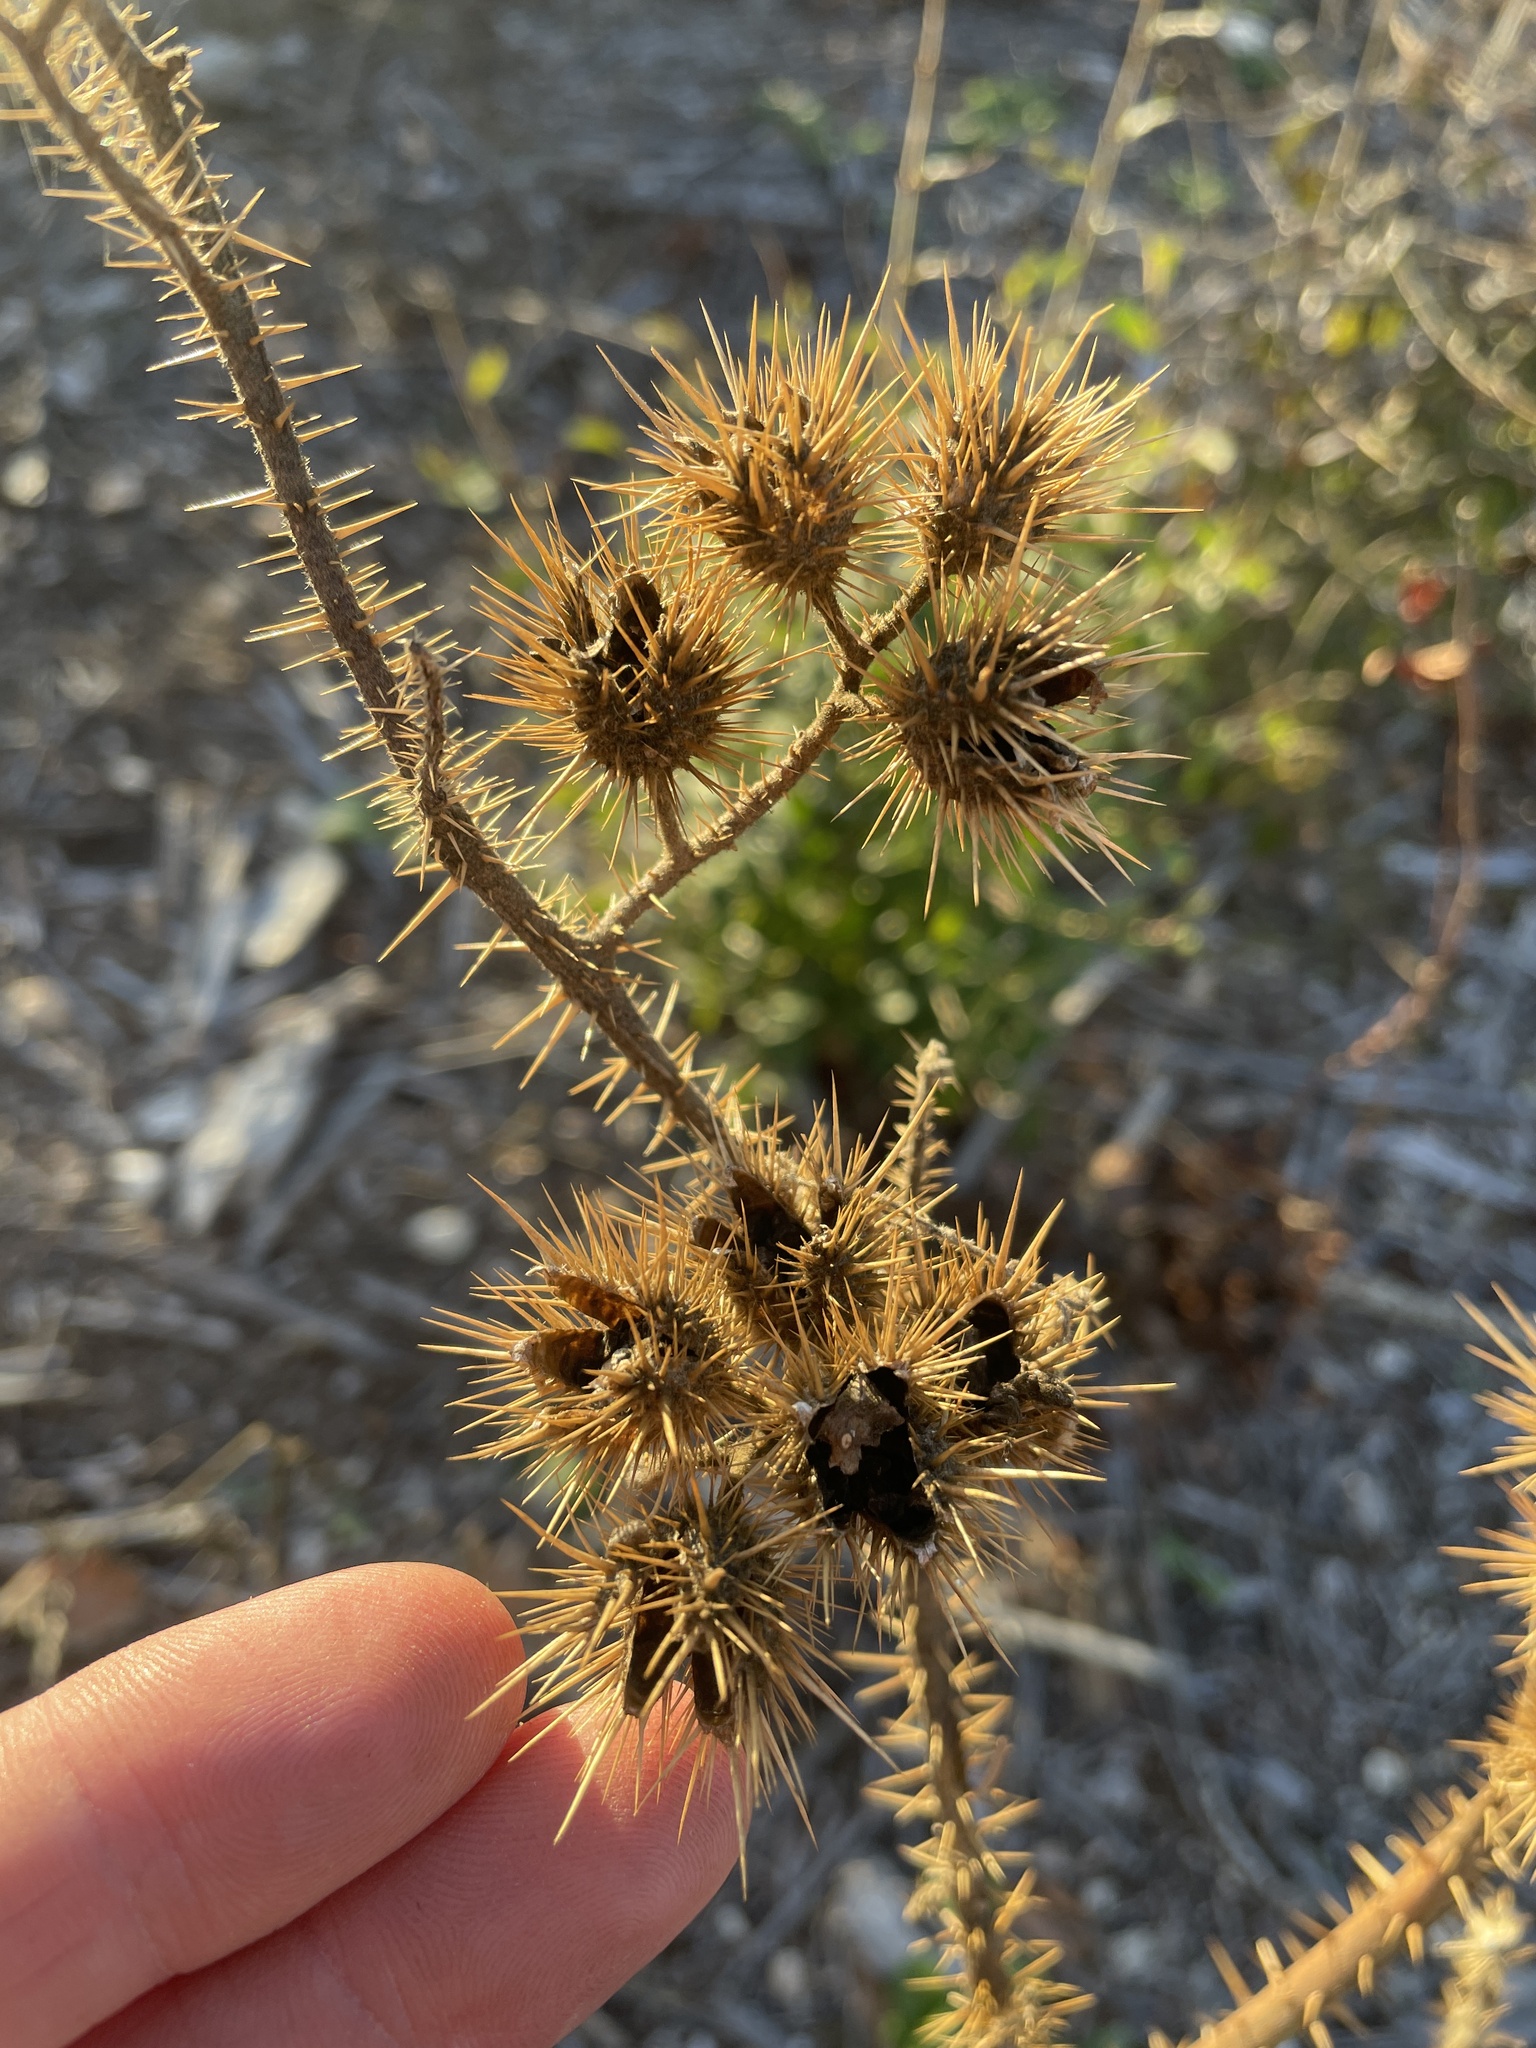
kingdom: Plantae
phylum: Tracheophyta
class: Magnoliopsida
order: Solanales
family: Solanaceae
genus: Solanum
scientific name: Solanum angustifolium
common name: Buffalobur nightshade
